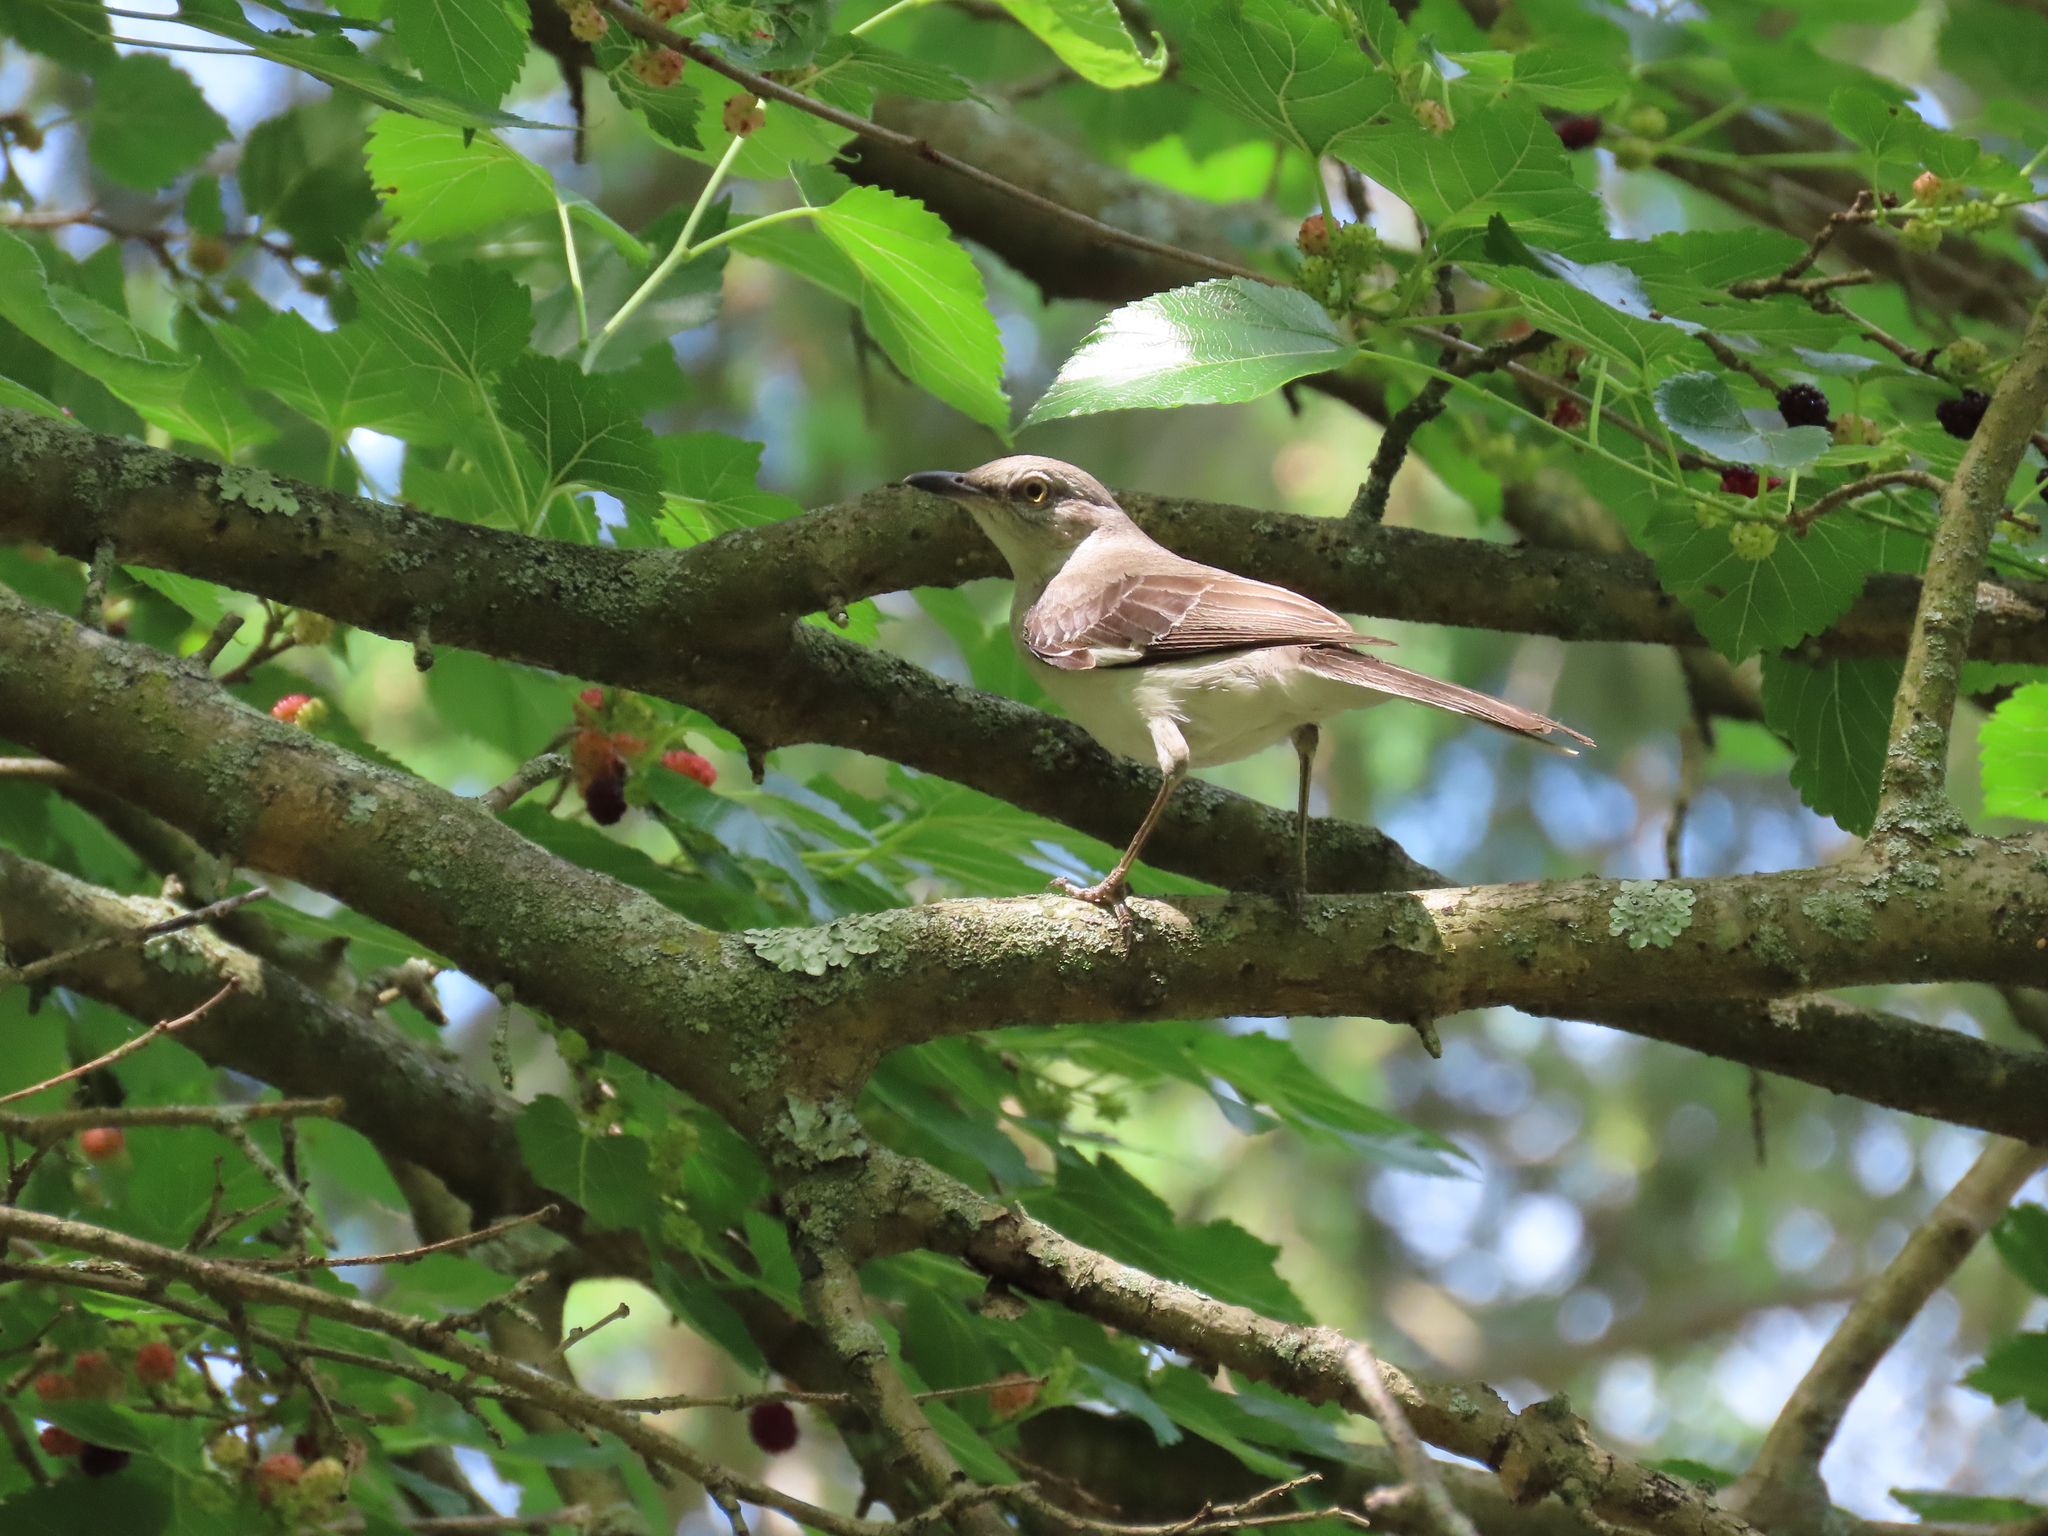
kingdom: Animalia
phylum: Chordata
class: Aves
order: Passeriformes
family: Mimidae
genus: Mimus
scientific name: Mimus polyglottos
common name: Northern mockingbird
